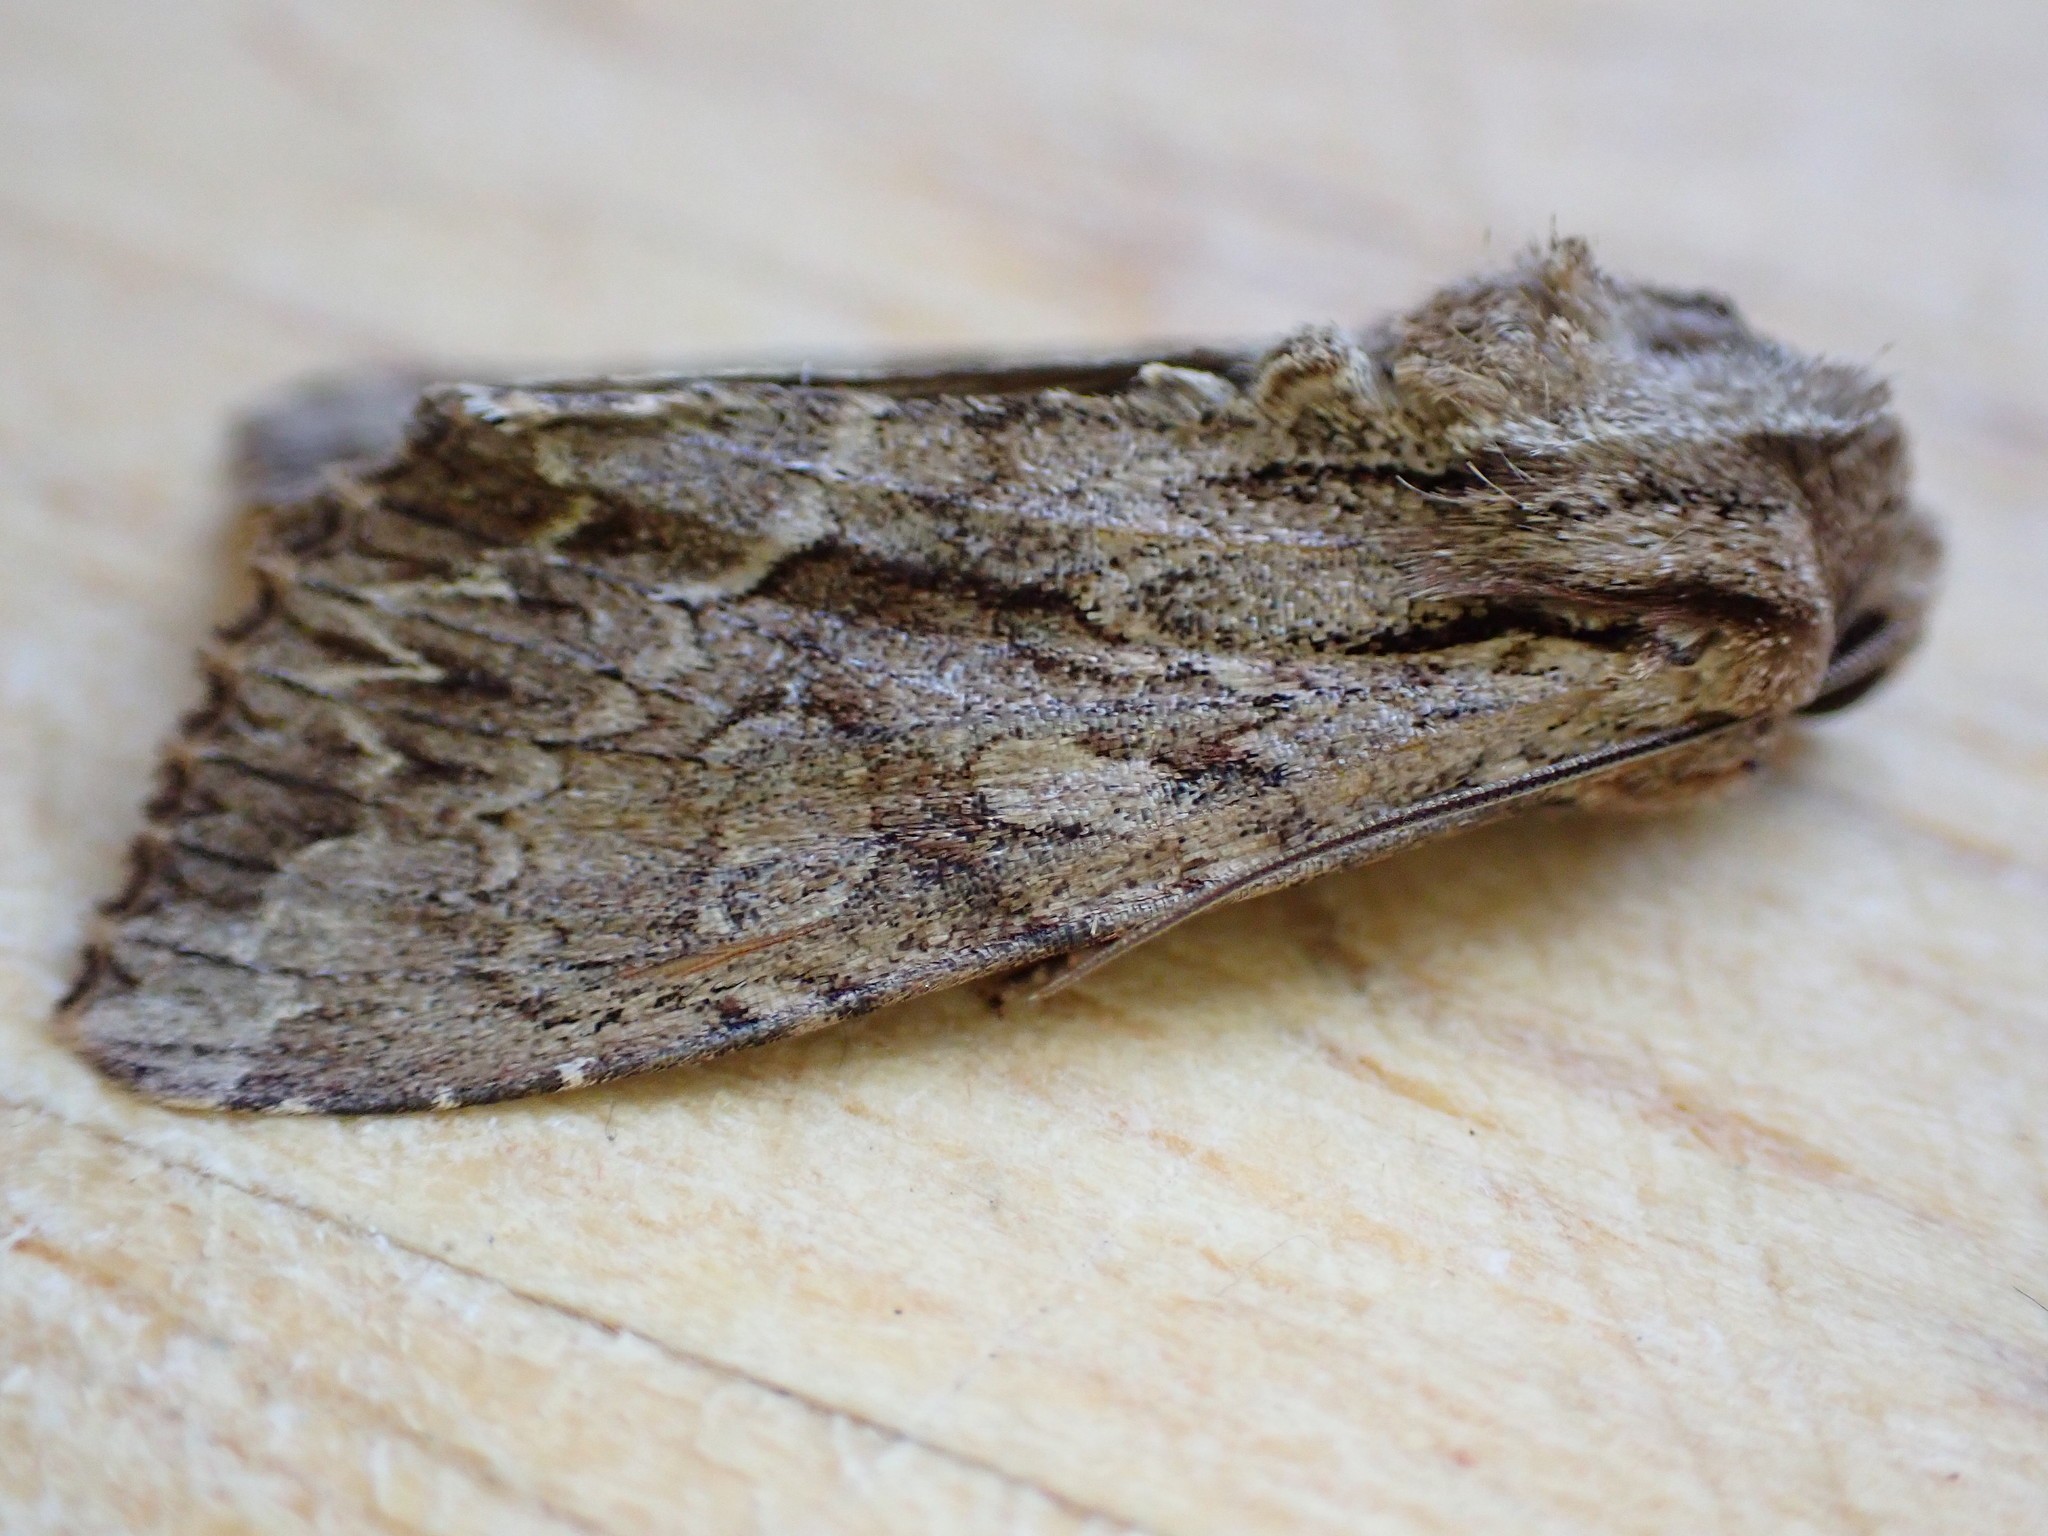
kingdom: Animalia
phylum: Arthropoda
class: Insecta
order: Lepidoptera
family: Noctuidae
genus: Apamea
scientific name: Apamea monoglypha
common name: Dark arches
